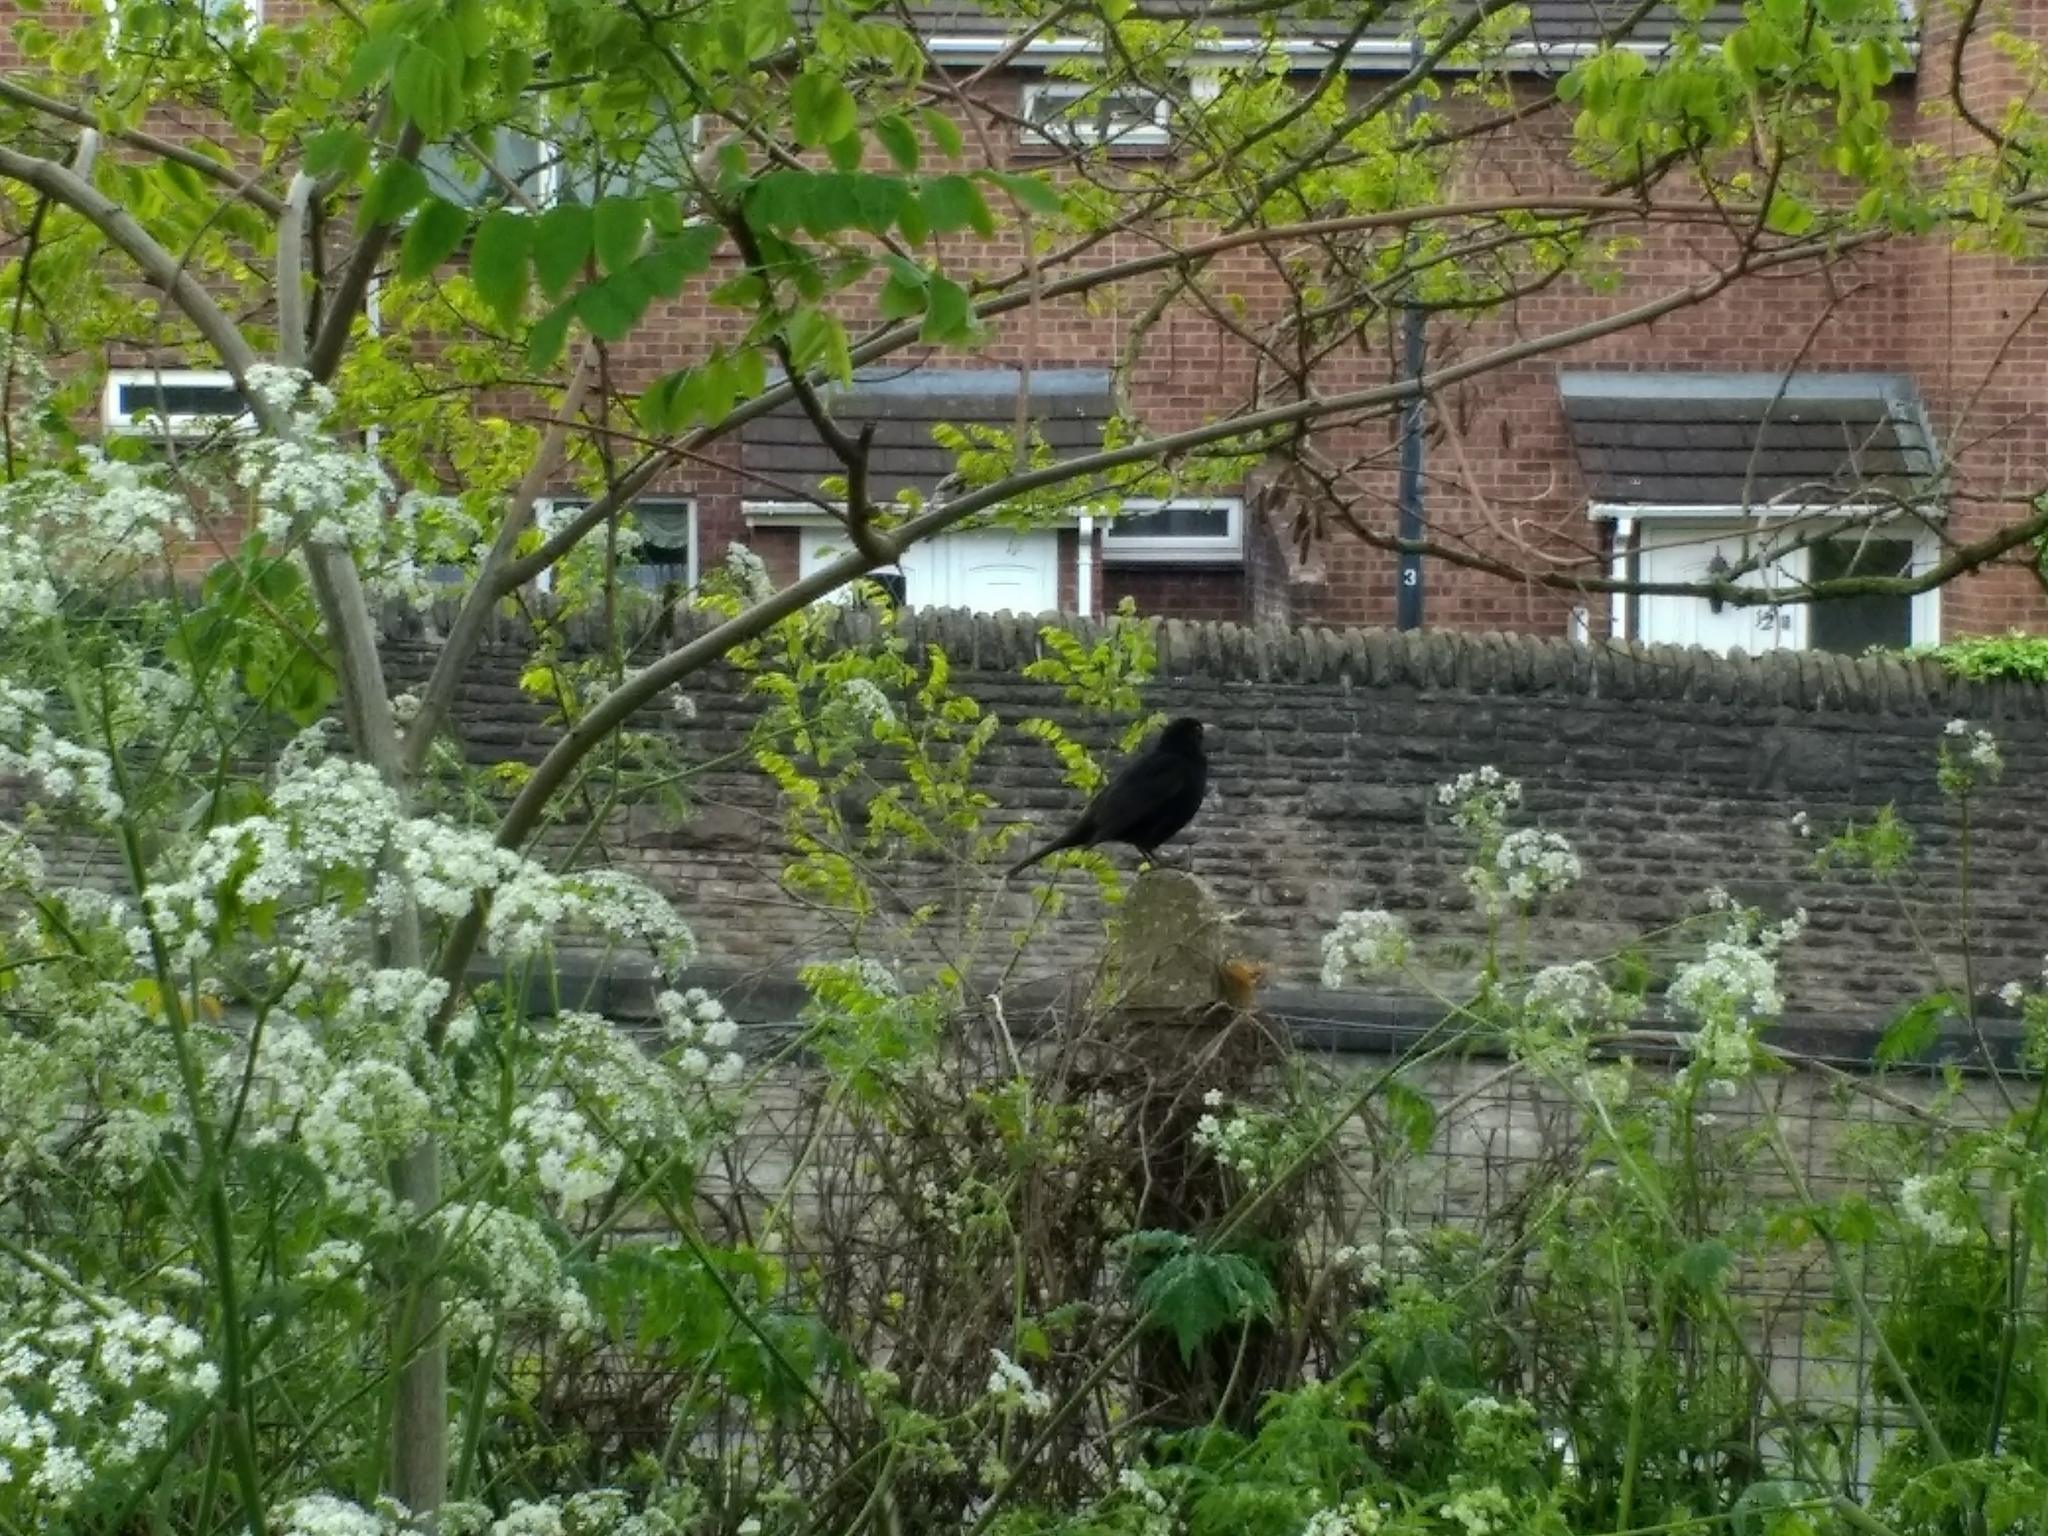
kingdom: Animalia
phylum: Chordata
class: Aves
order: Passeriformes
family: Turdidae
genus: Turdus
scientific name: Turdus merula
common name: Common blackbird
